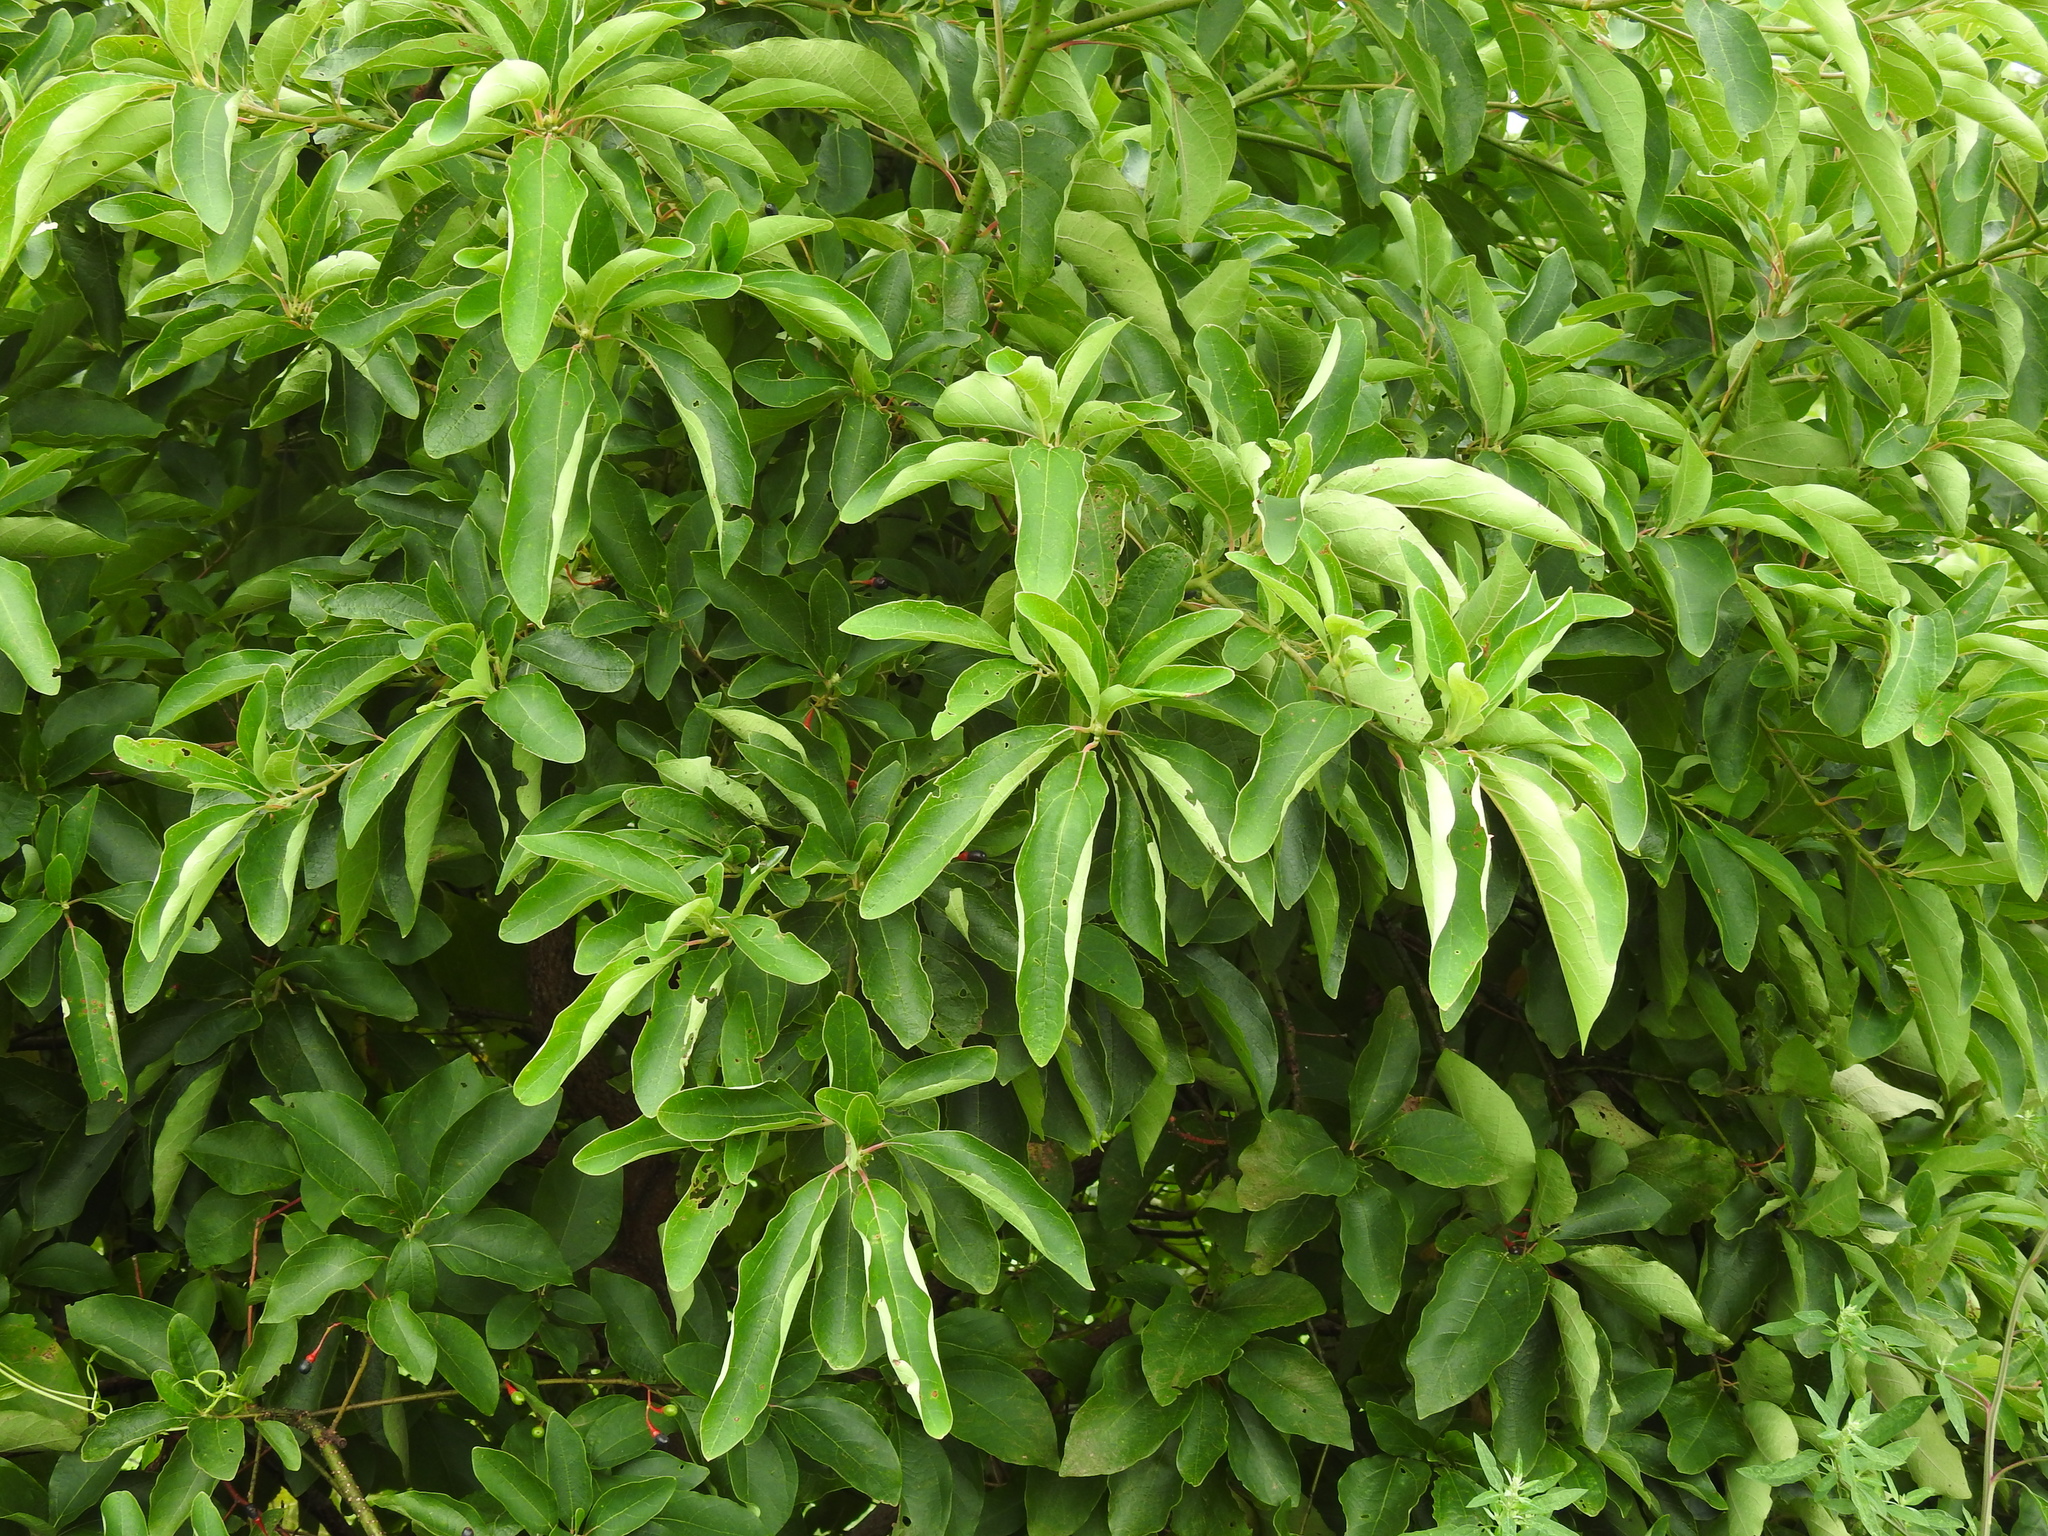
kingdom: Plantae
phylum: Tracheophyta
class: Magnoliopsida
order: Laurales
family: Lauraceae
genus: Sassafras
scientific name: Sassafras albidum
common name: Sassafras
